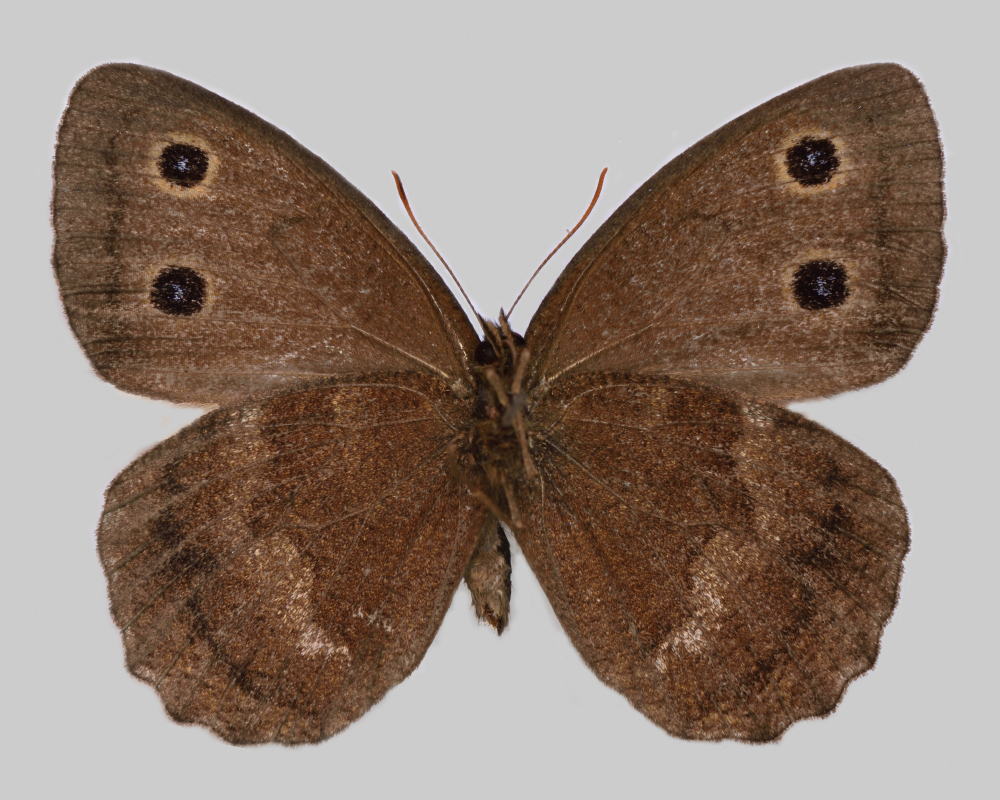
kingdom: Animalia
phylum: Arthropoda
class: Insecta
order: Lepidoptera
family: Nymphalidae
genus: Minois
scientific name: Minois dryas
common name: Dryad
